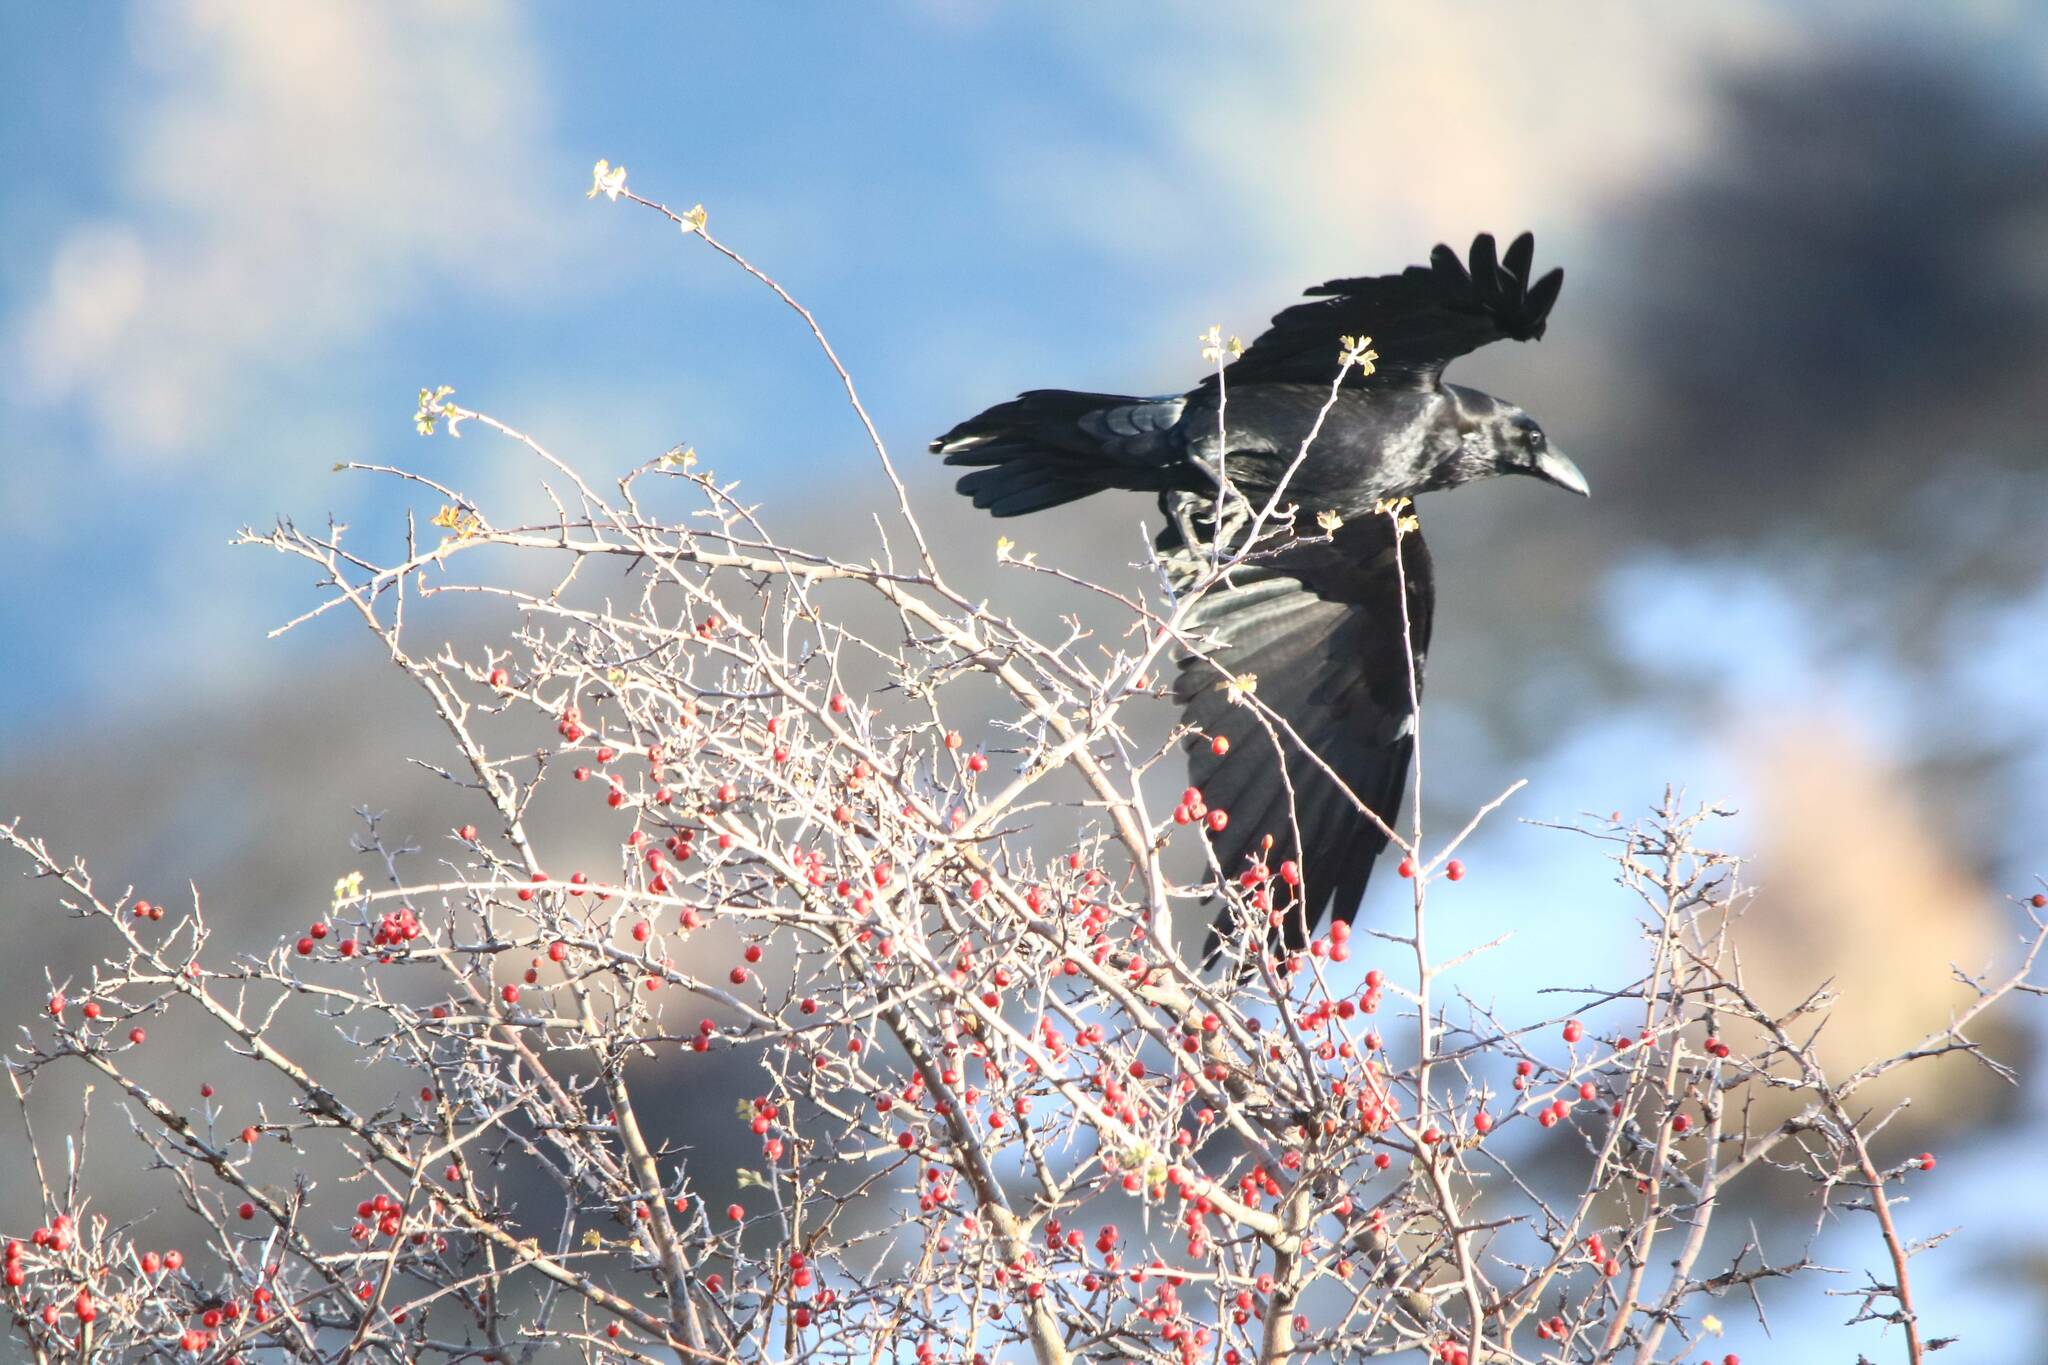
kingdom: Animalia
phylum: Chordata
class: Aves
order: Passeriformes
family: Corvidae
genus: Corvus
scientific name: Corvus corax
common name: Common raven
